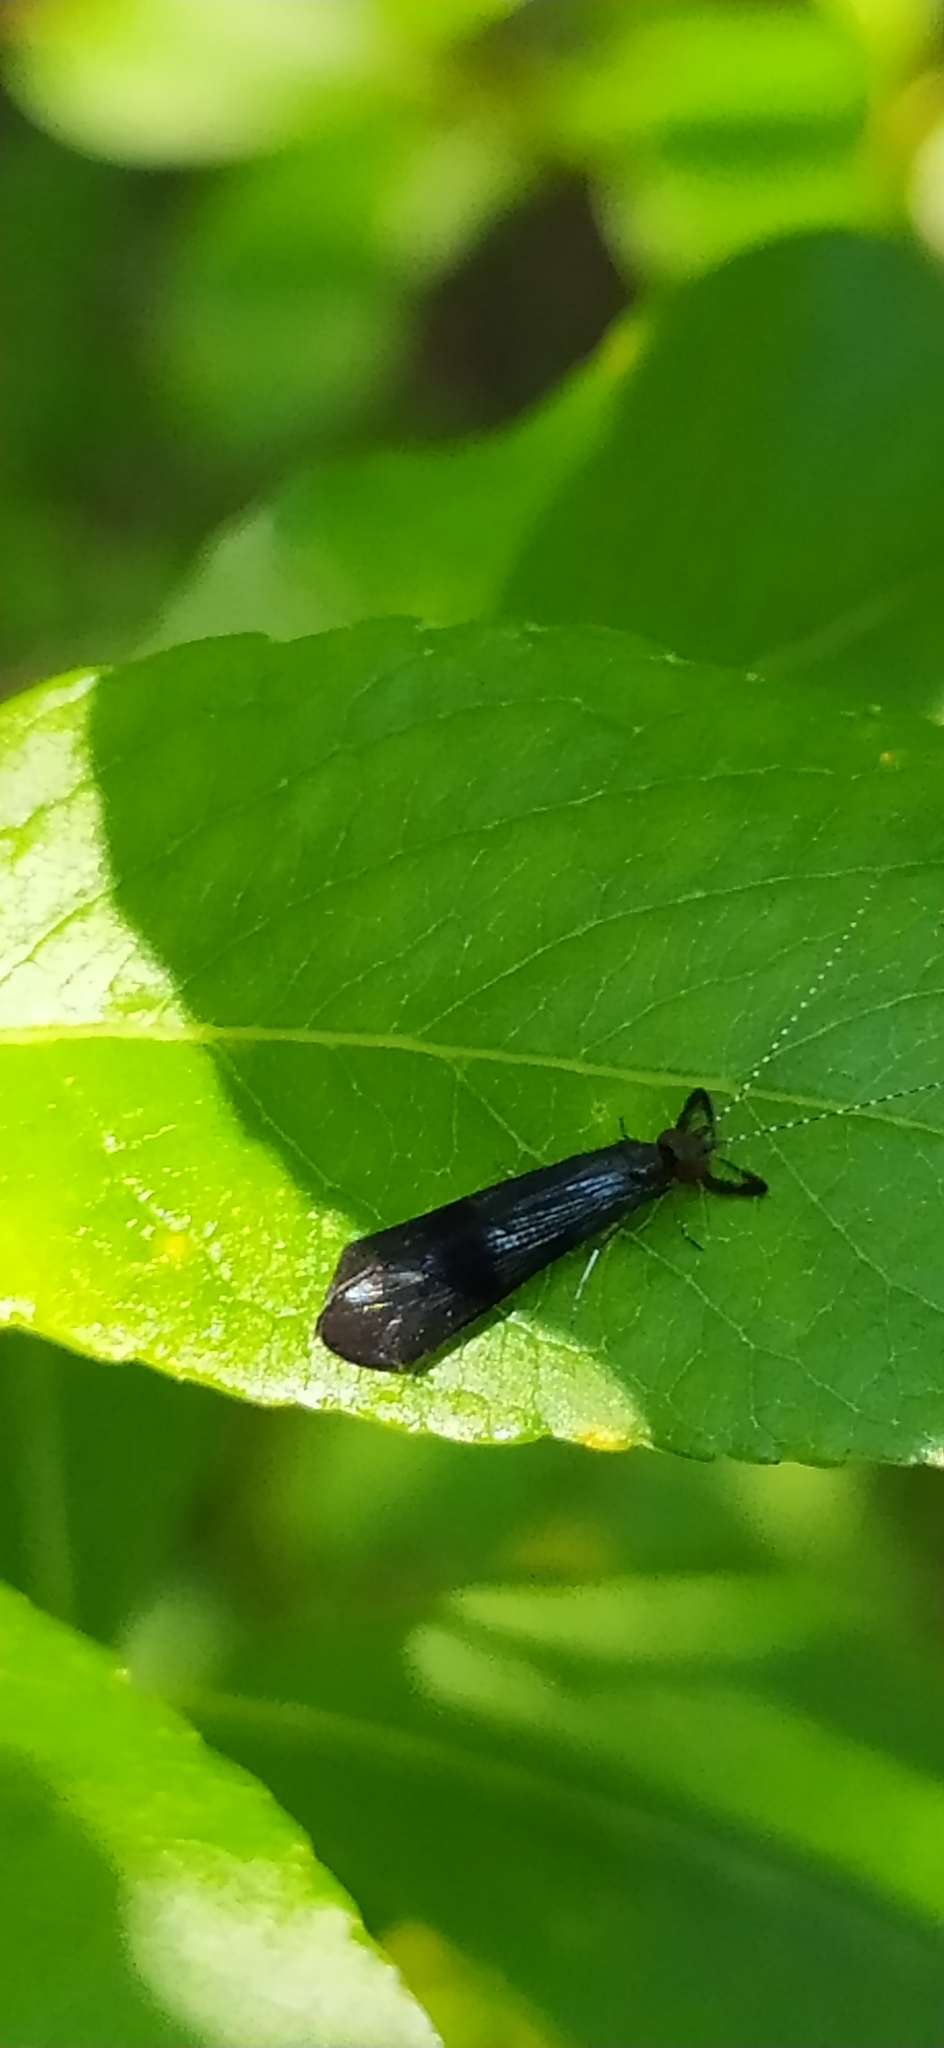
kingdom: Animalia
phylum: Arthropoda
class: Insecta
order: Trichoptera
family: Leptoceridae
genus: Mystacides
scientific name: Mystacides azureus
